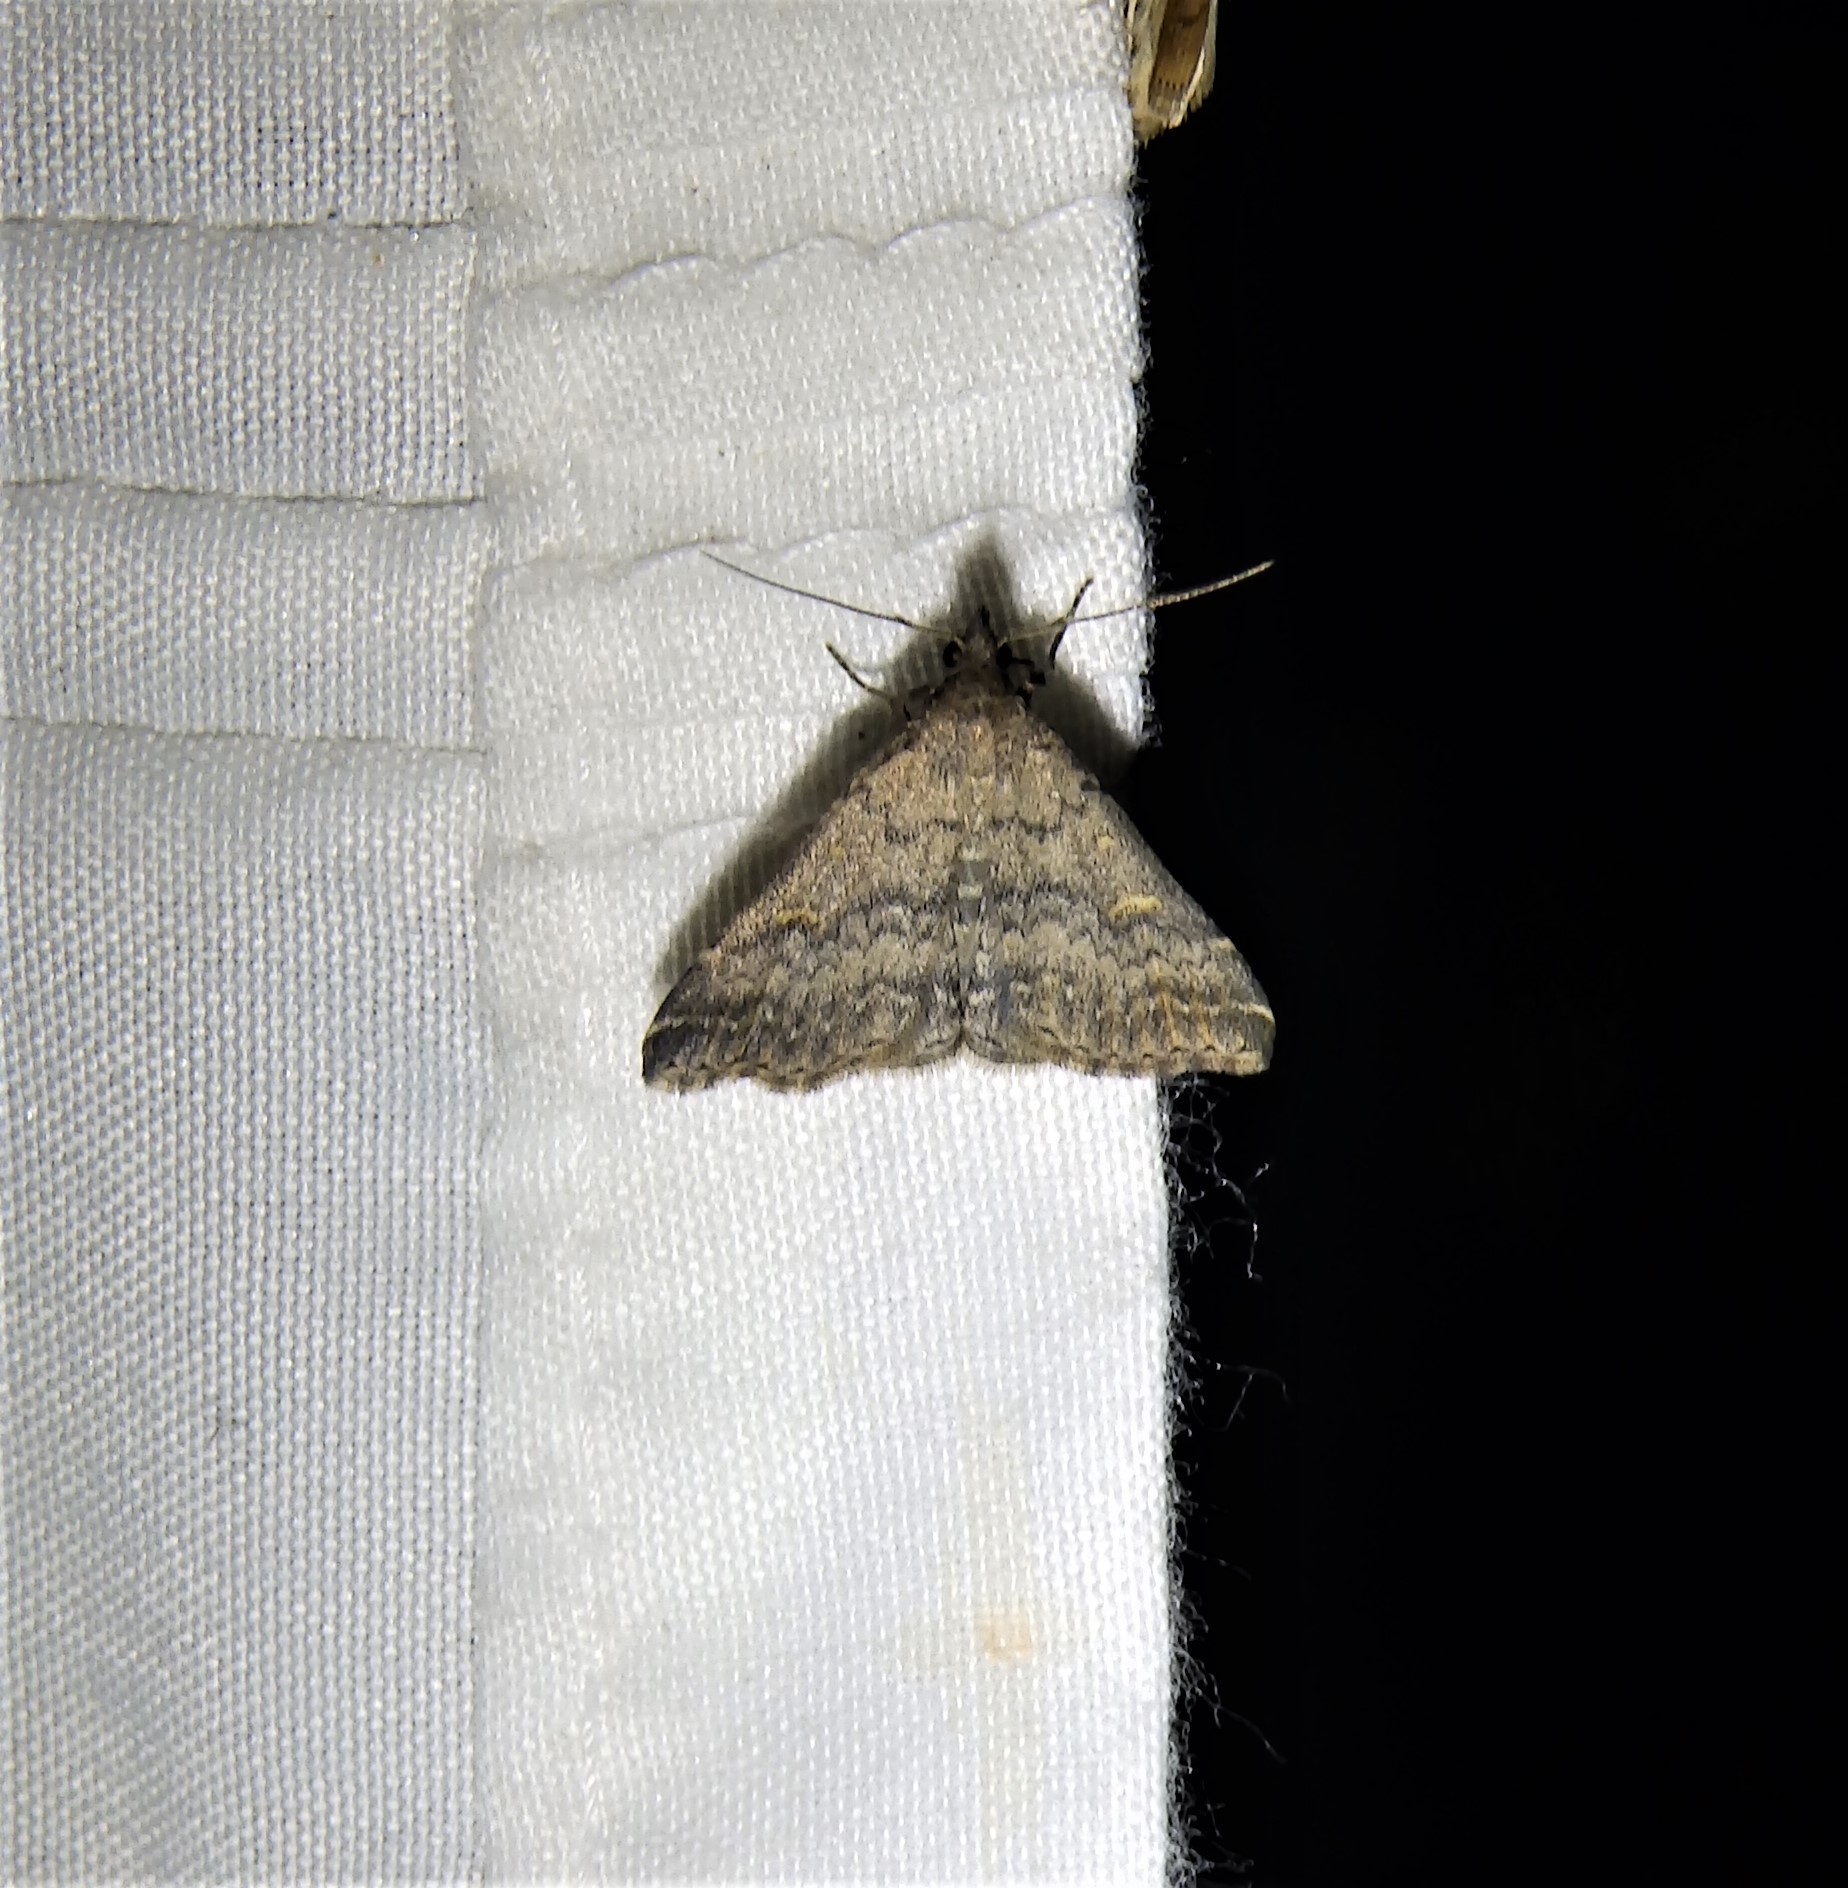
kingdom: Animalia
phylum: Arthropoda
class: Insecta
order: Lepidoptera
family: Erebidae
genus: Tetanolita
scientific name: Tetanolita floridana
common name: Florida tetanolita moth
